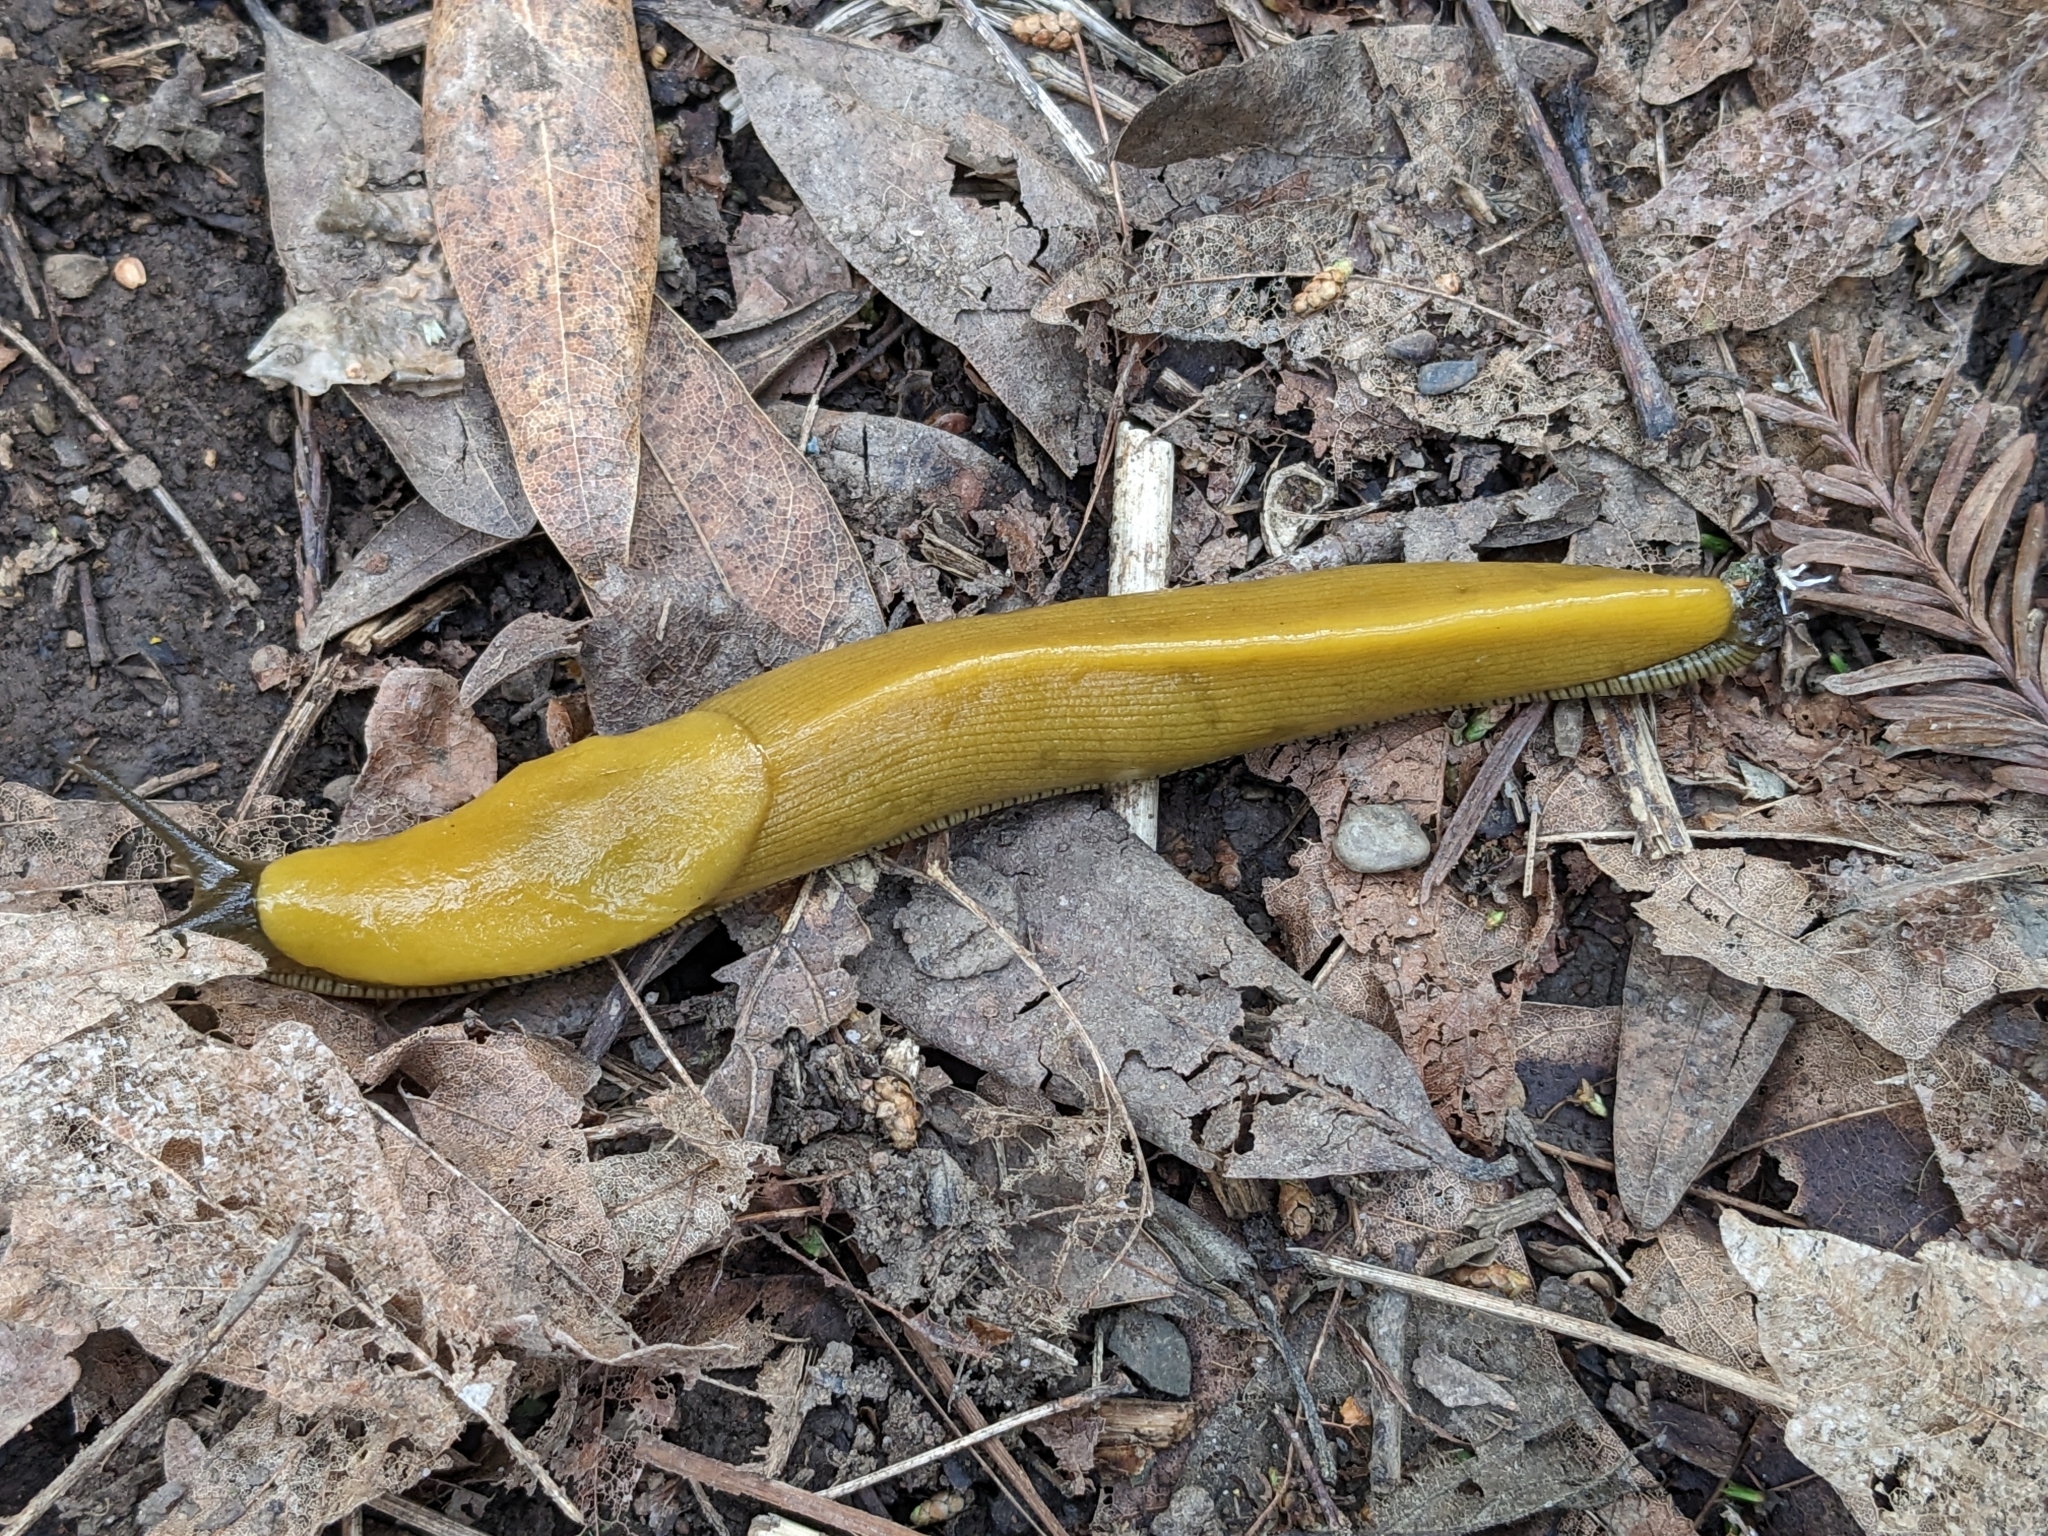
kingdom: Animalia
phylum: Mollusca
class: Gastropoda
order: Stylommatophora
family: Ariolimacidae
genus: Ariolimax
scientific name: Ariolimax buttoni
